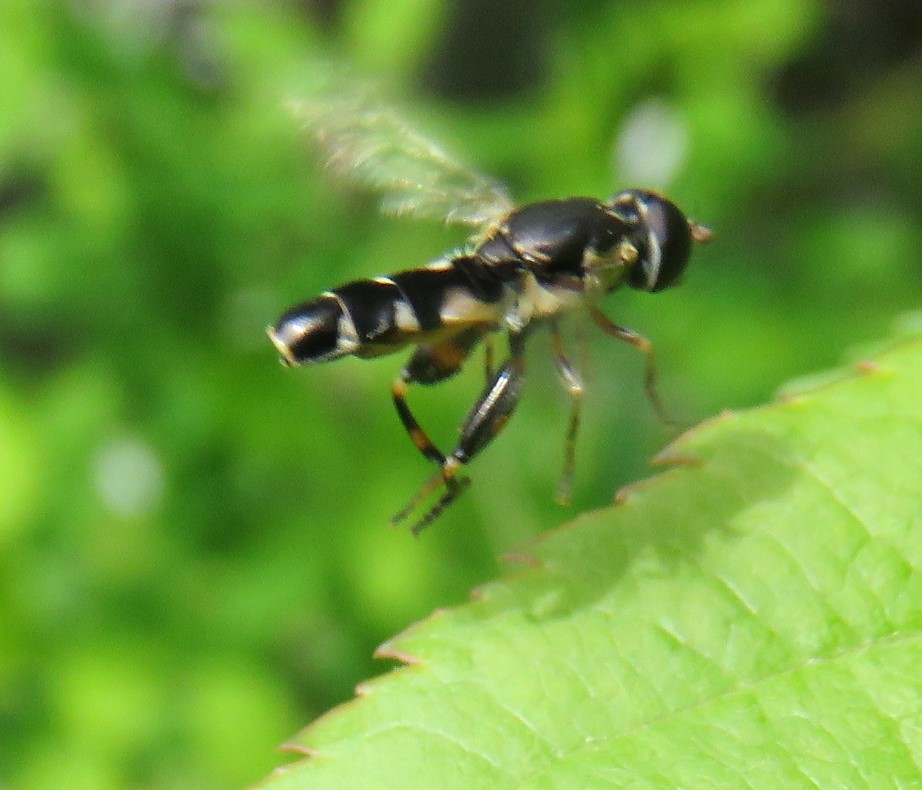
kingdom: Animalia
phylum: Arthropoda
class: Insecta
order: Diptera
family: Syrphidae
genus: Syritta
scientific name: Syritta pipiens
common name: Hover fly
